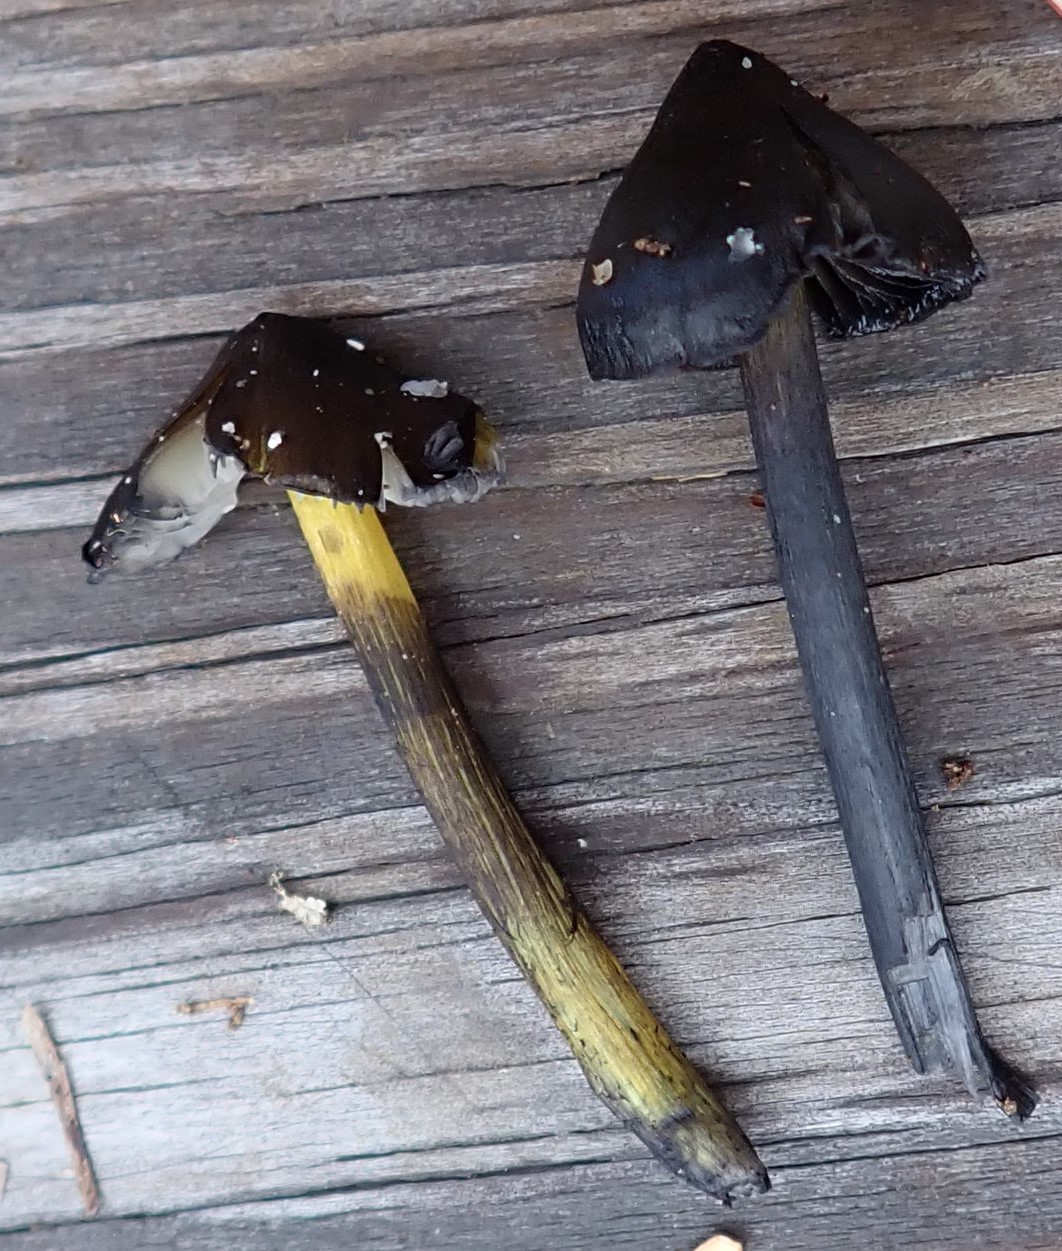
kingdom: Fungi
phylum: Basidiomycota
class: Agaricomycetes
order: Agaricales
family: Hygrophoraceae
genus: Hygrocybe
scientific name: Hygrocybe conica
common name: Blackening wax-cap
